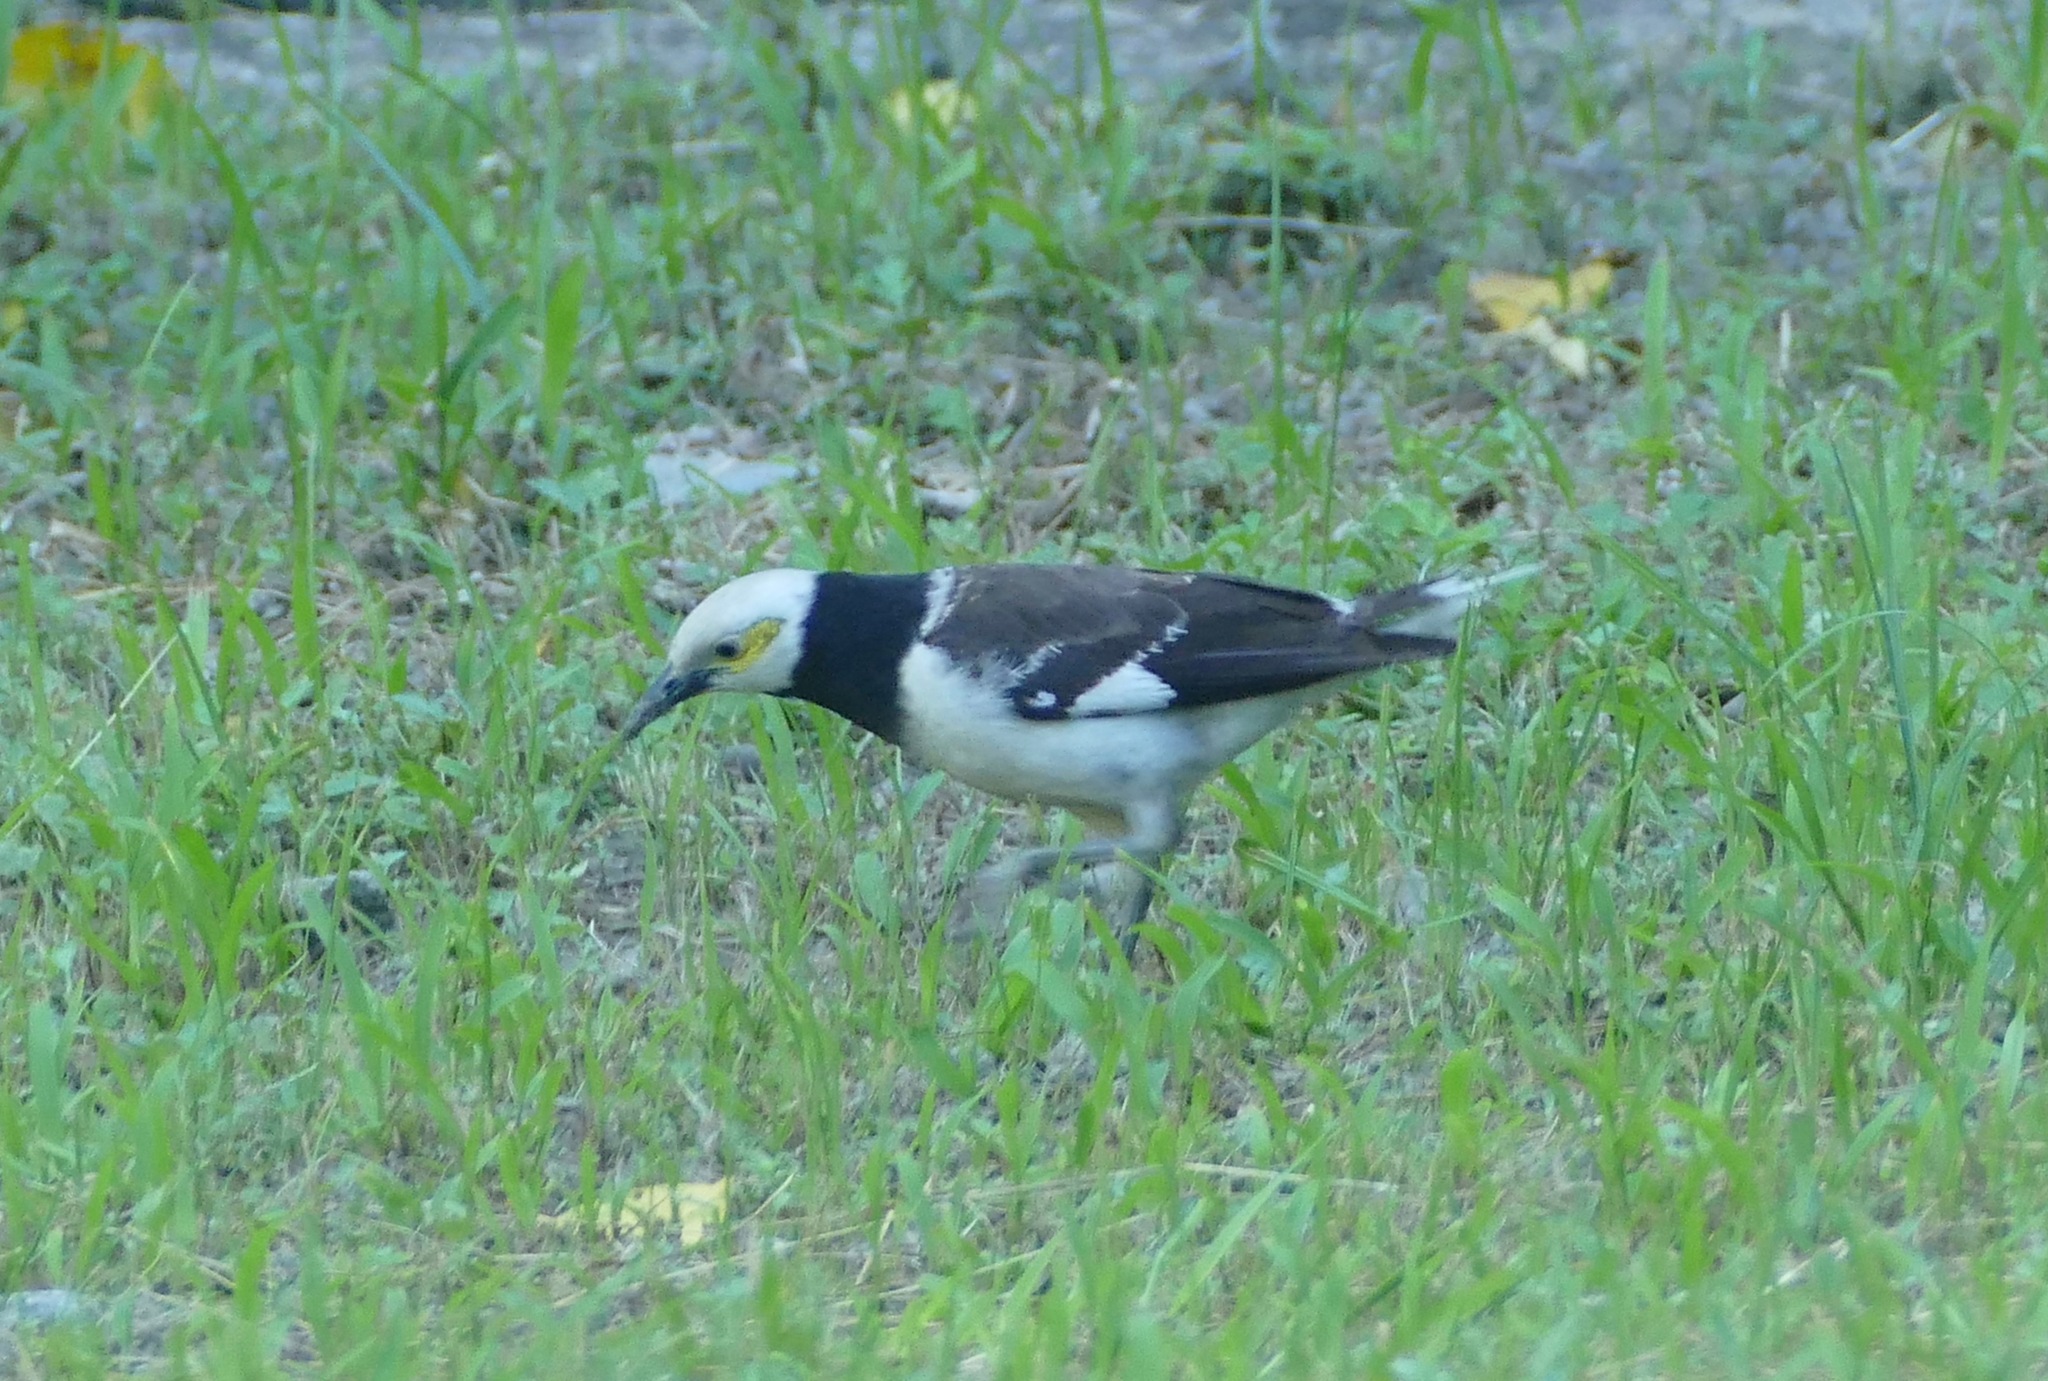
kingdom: Animalia
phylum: Chordata
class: Aves
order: Passeriformes
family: Sturnidae
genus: Gracupica
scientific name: Gracupica nigricollis
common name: Black-collared starling
